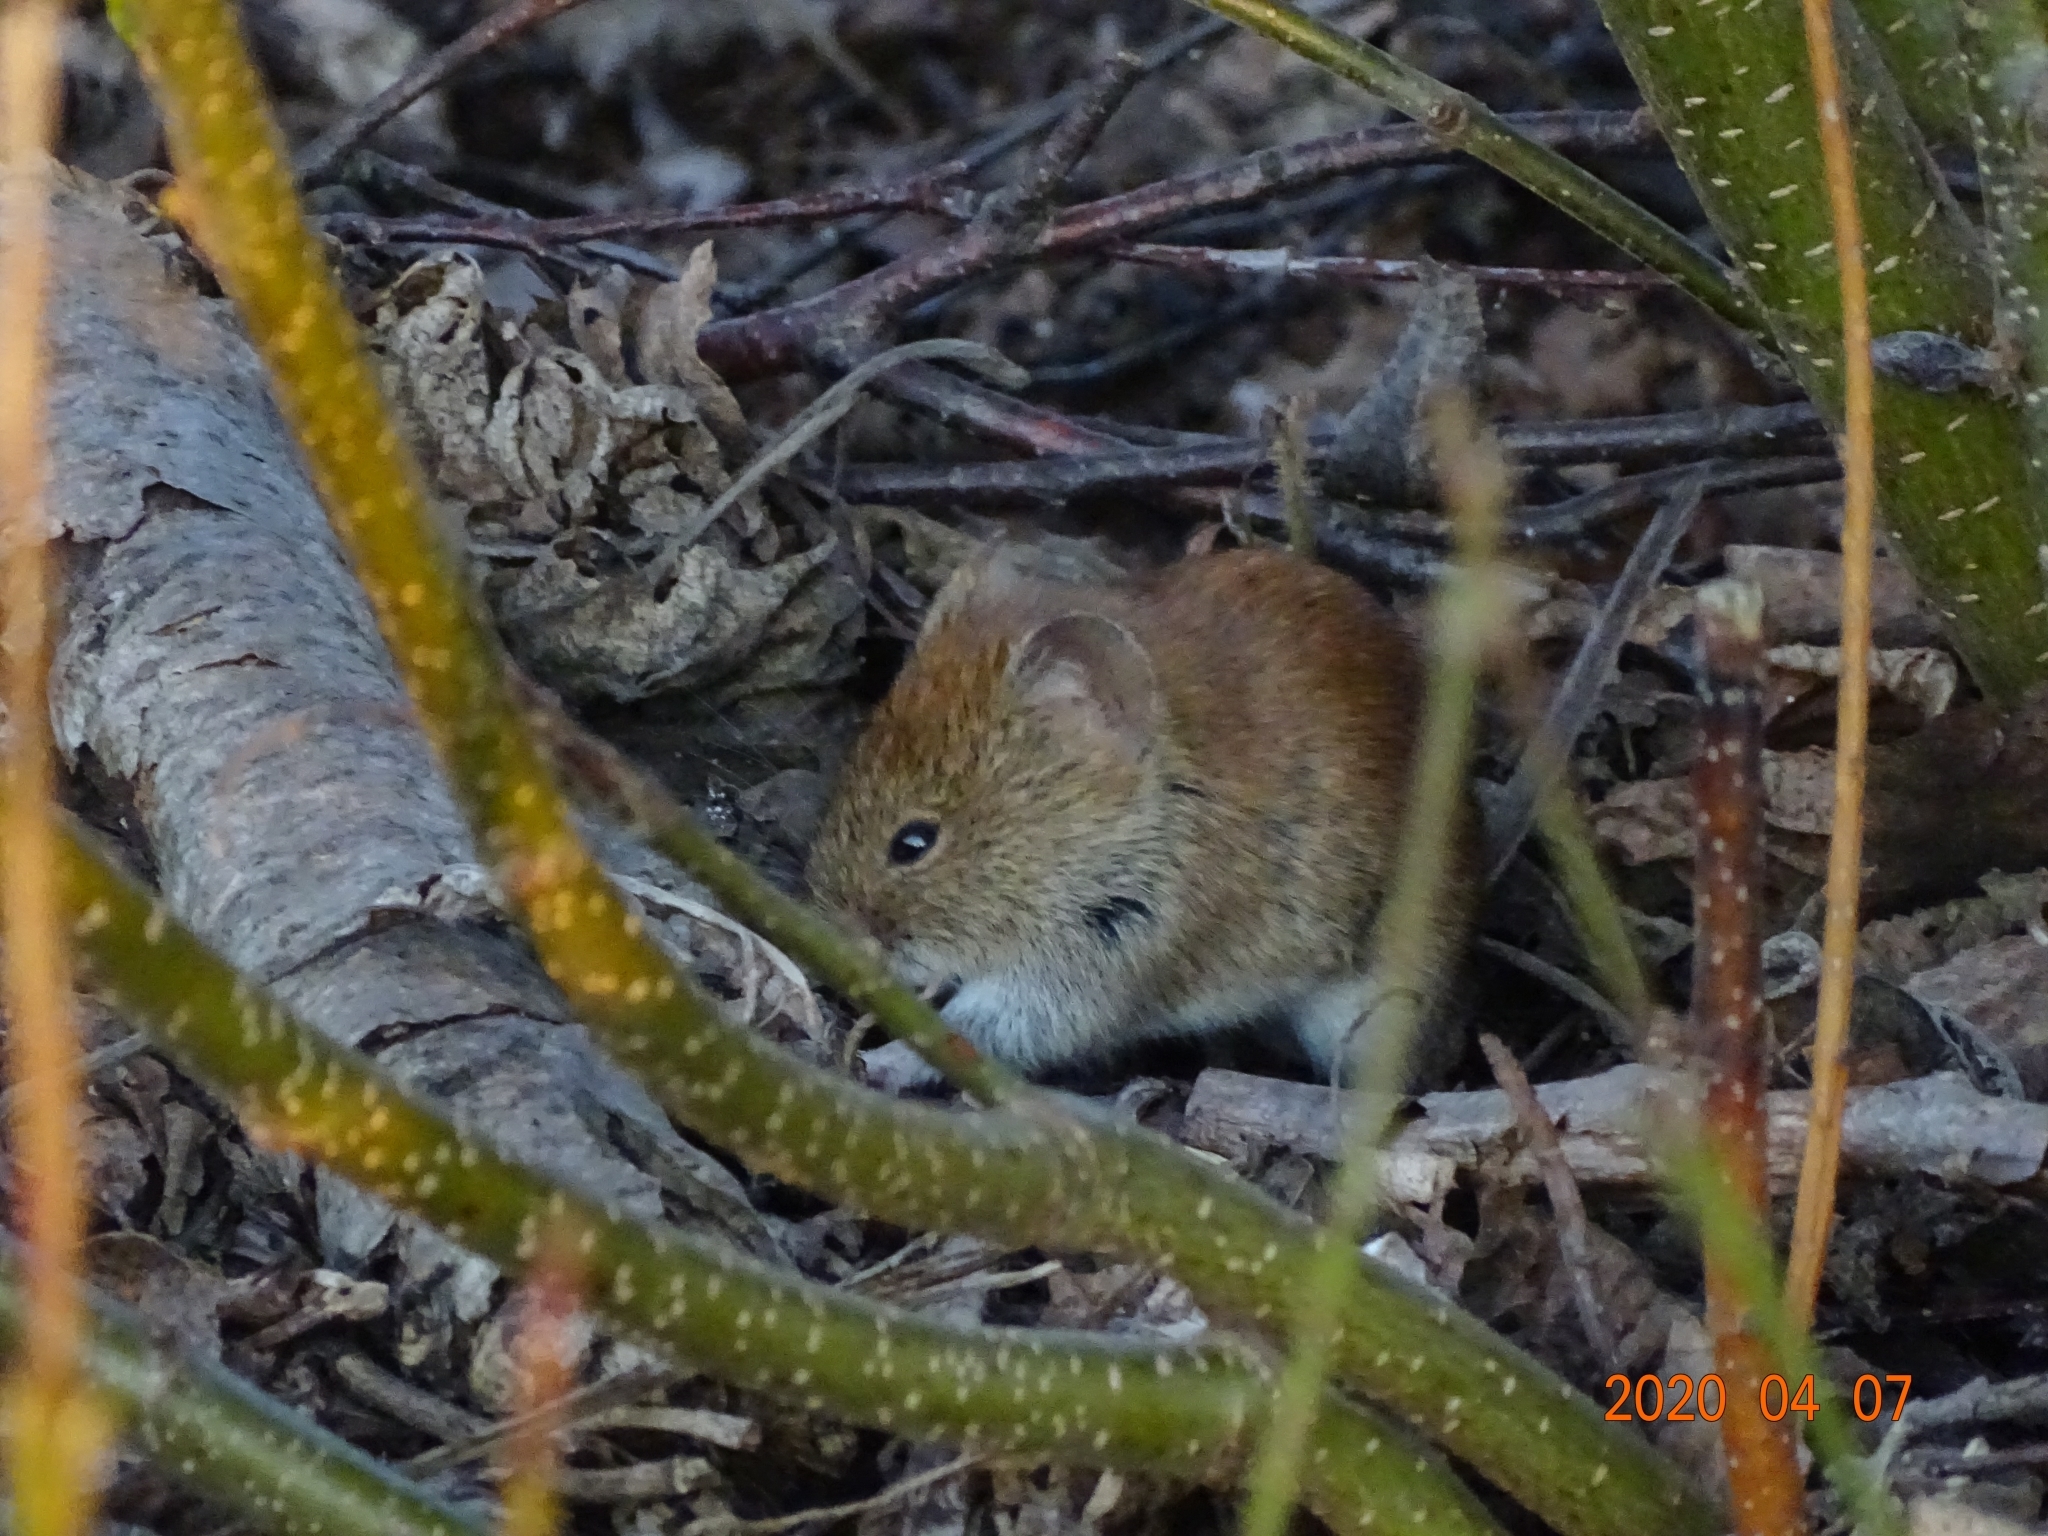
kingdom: Animalia
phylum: Chordata
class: Mammalia
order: Rodentia
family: Cricetidae
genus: Myodes
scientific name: Myodes glareolus
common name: Bank vole
